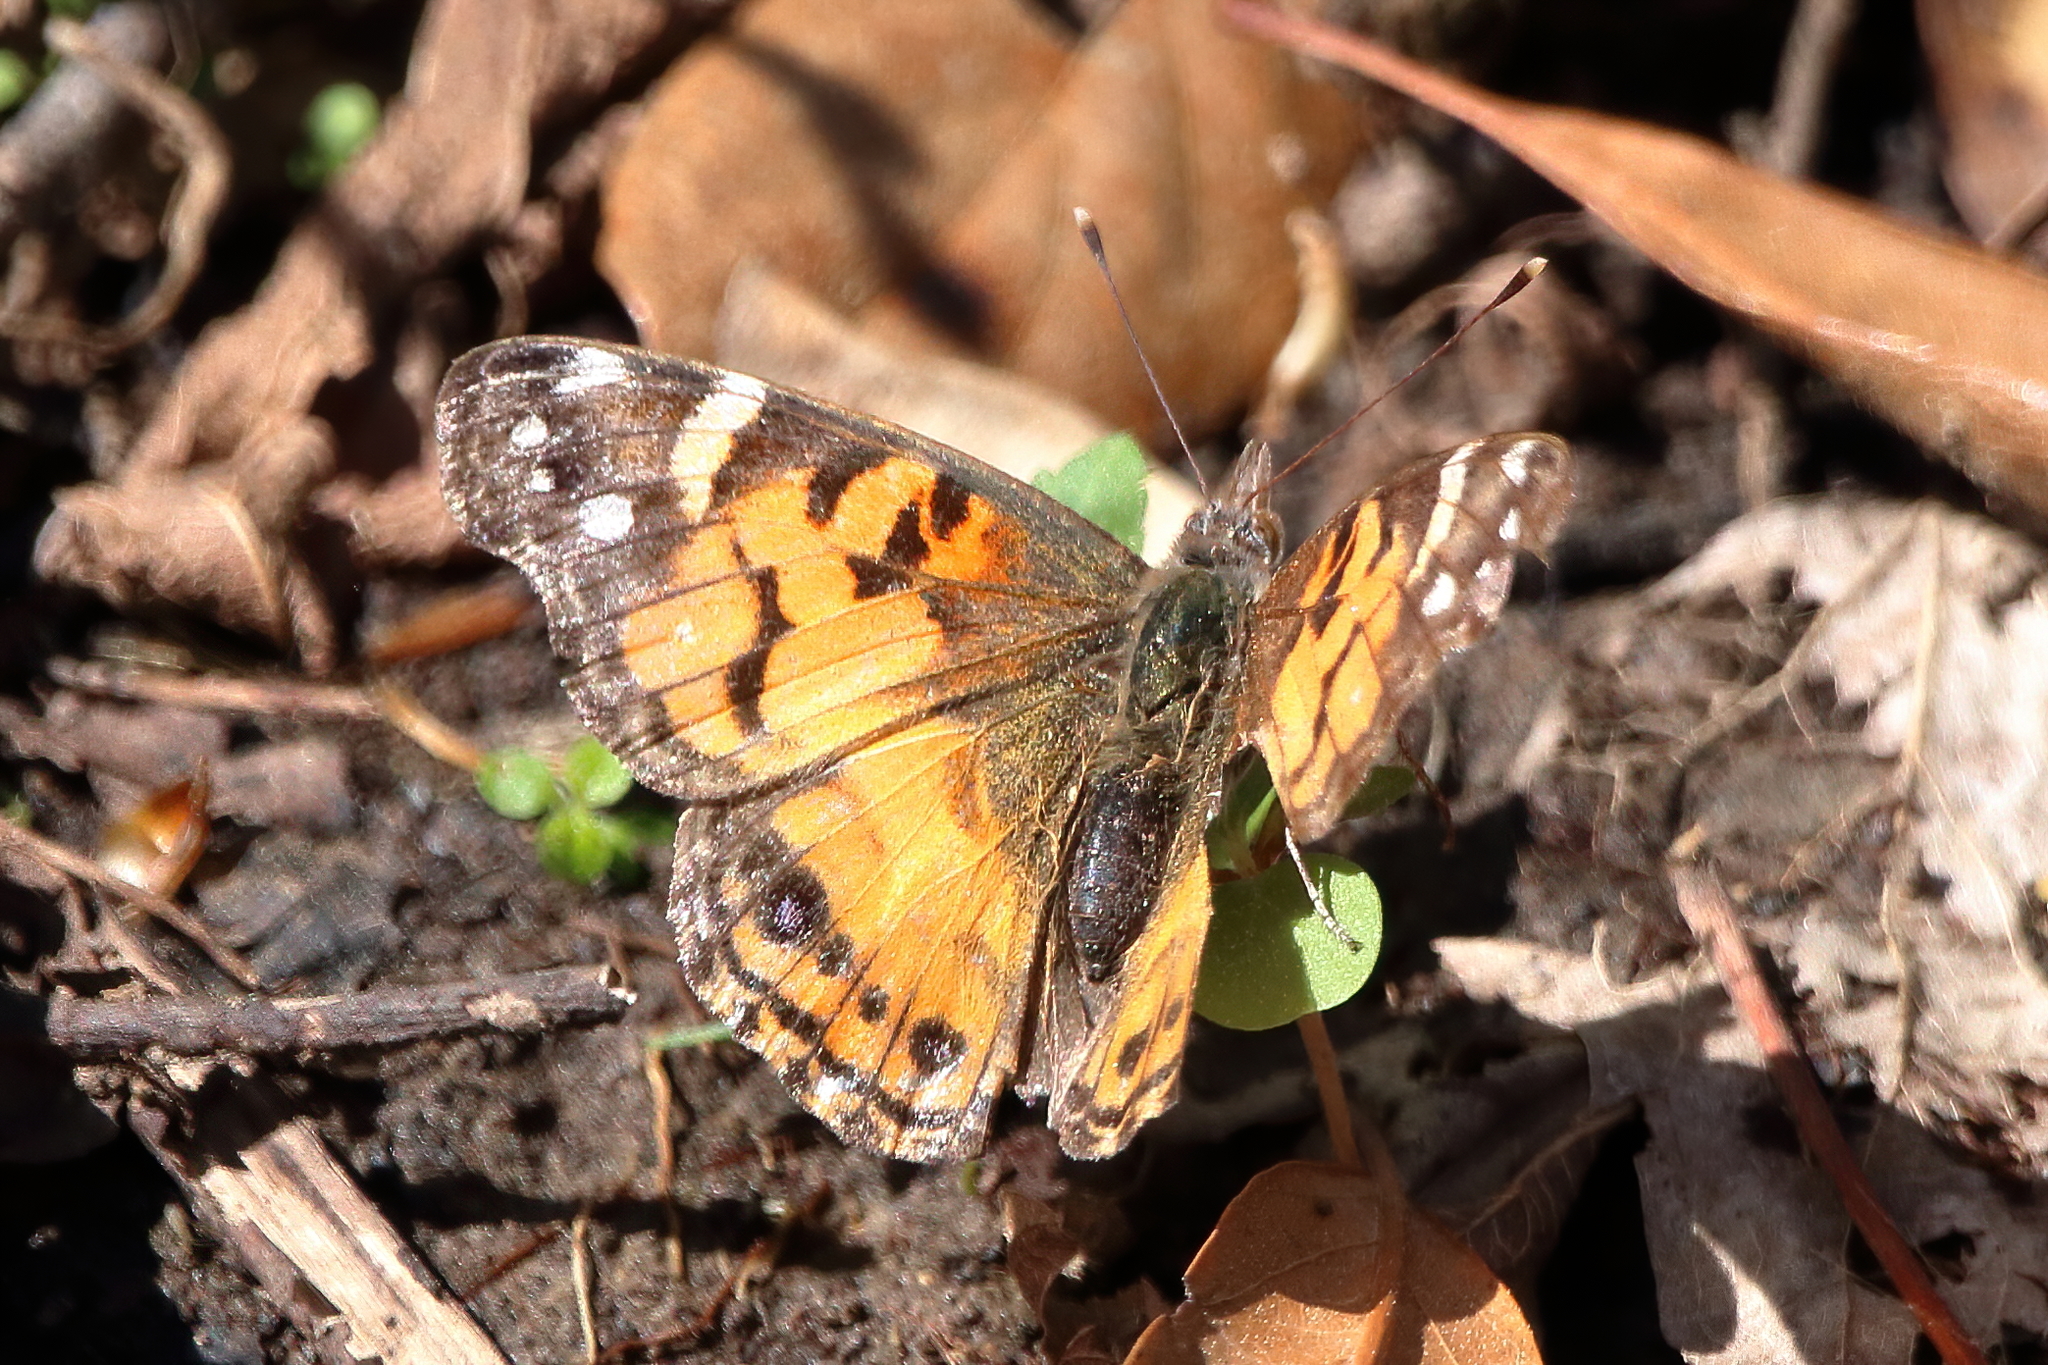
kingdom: Animalia
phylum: Arthropoda
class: Insecta
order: Lepidoptera
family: Nymphalidae
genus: Vanessa
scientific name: Vanessa virginiensis
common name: American lady
